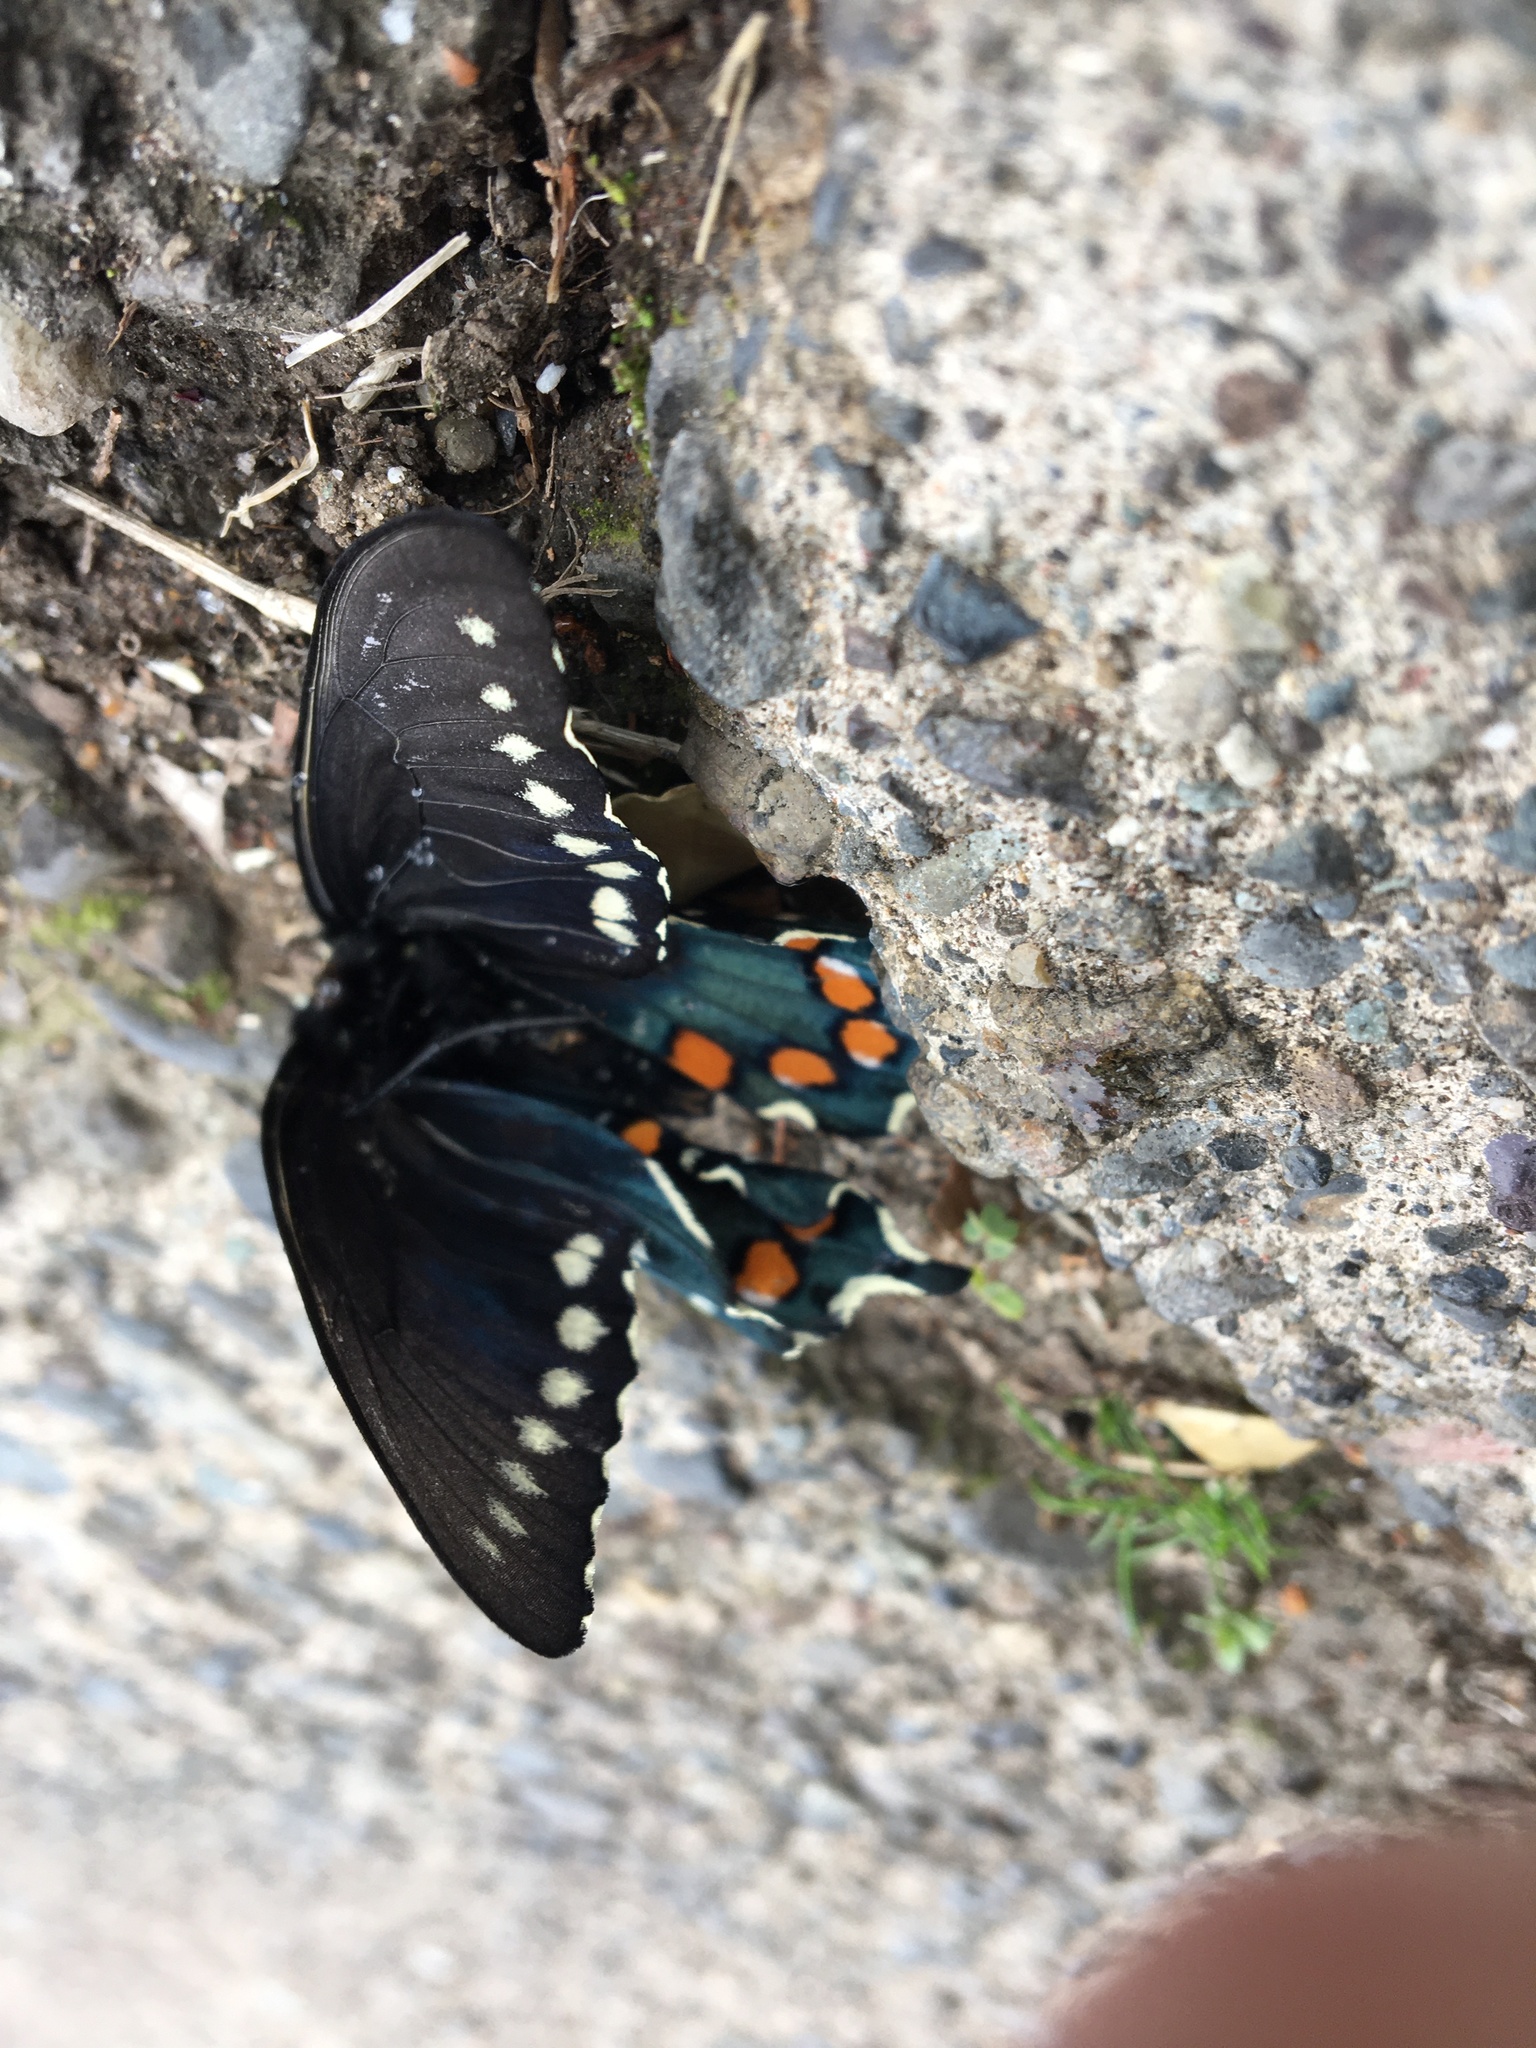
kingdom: Animalia
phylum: Arthropoda
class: Insecta
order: Lepidoptera
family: Papilionidae
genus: Battus
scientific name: Battus philenor
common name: Pipevine swallowtail
